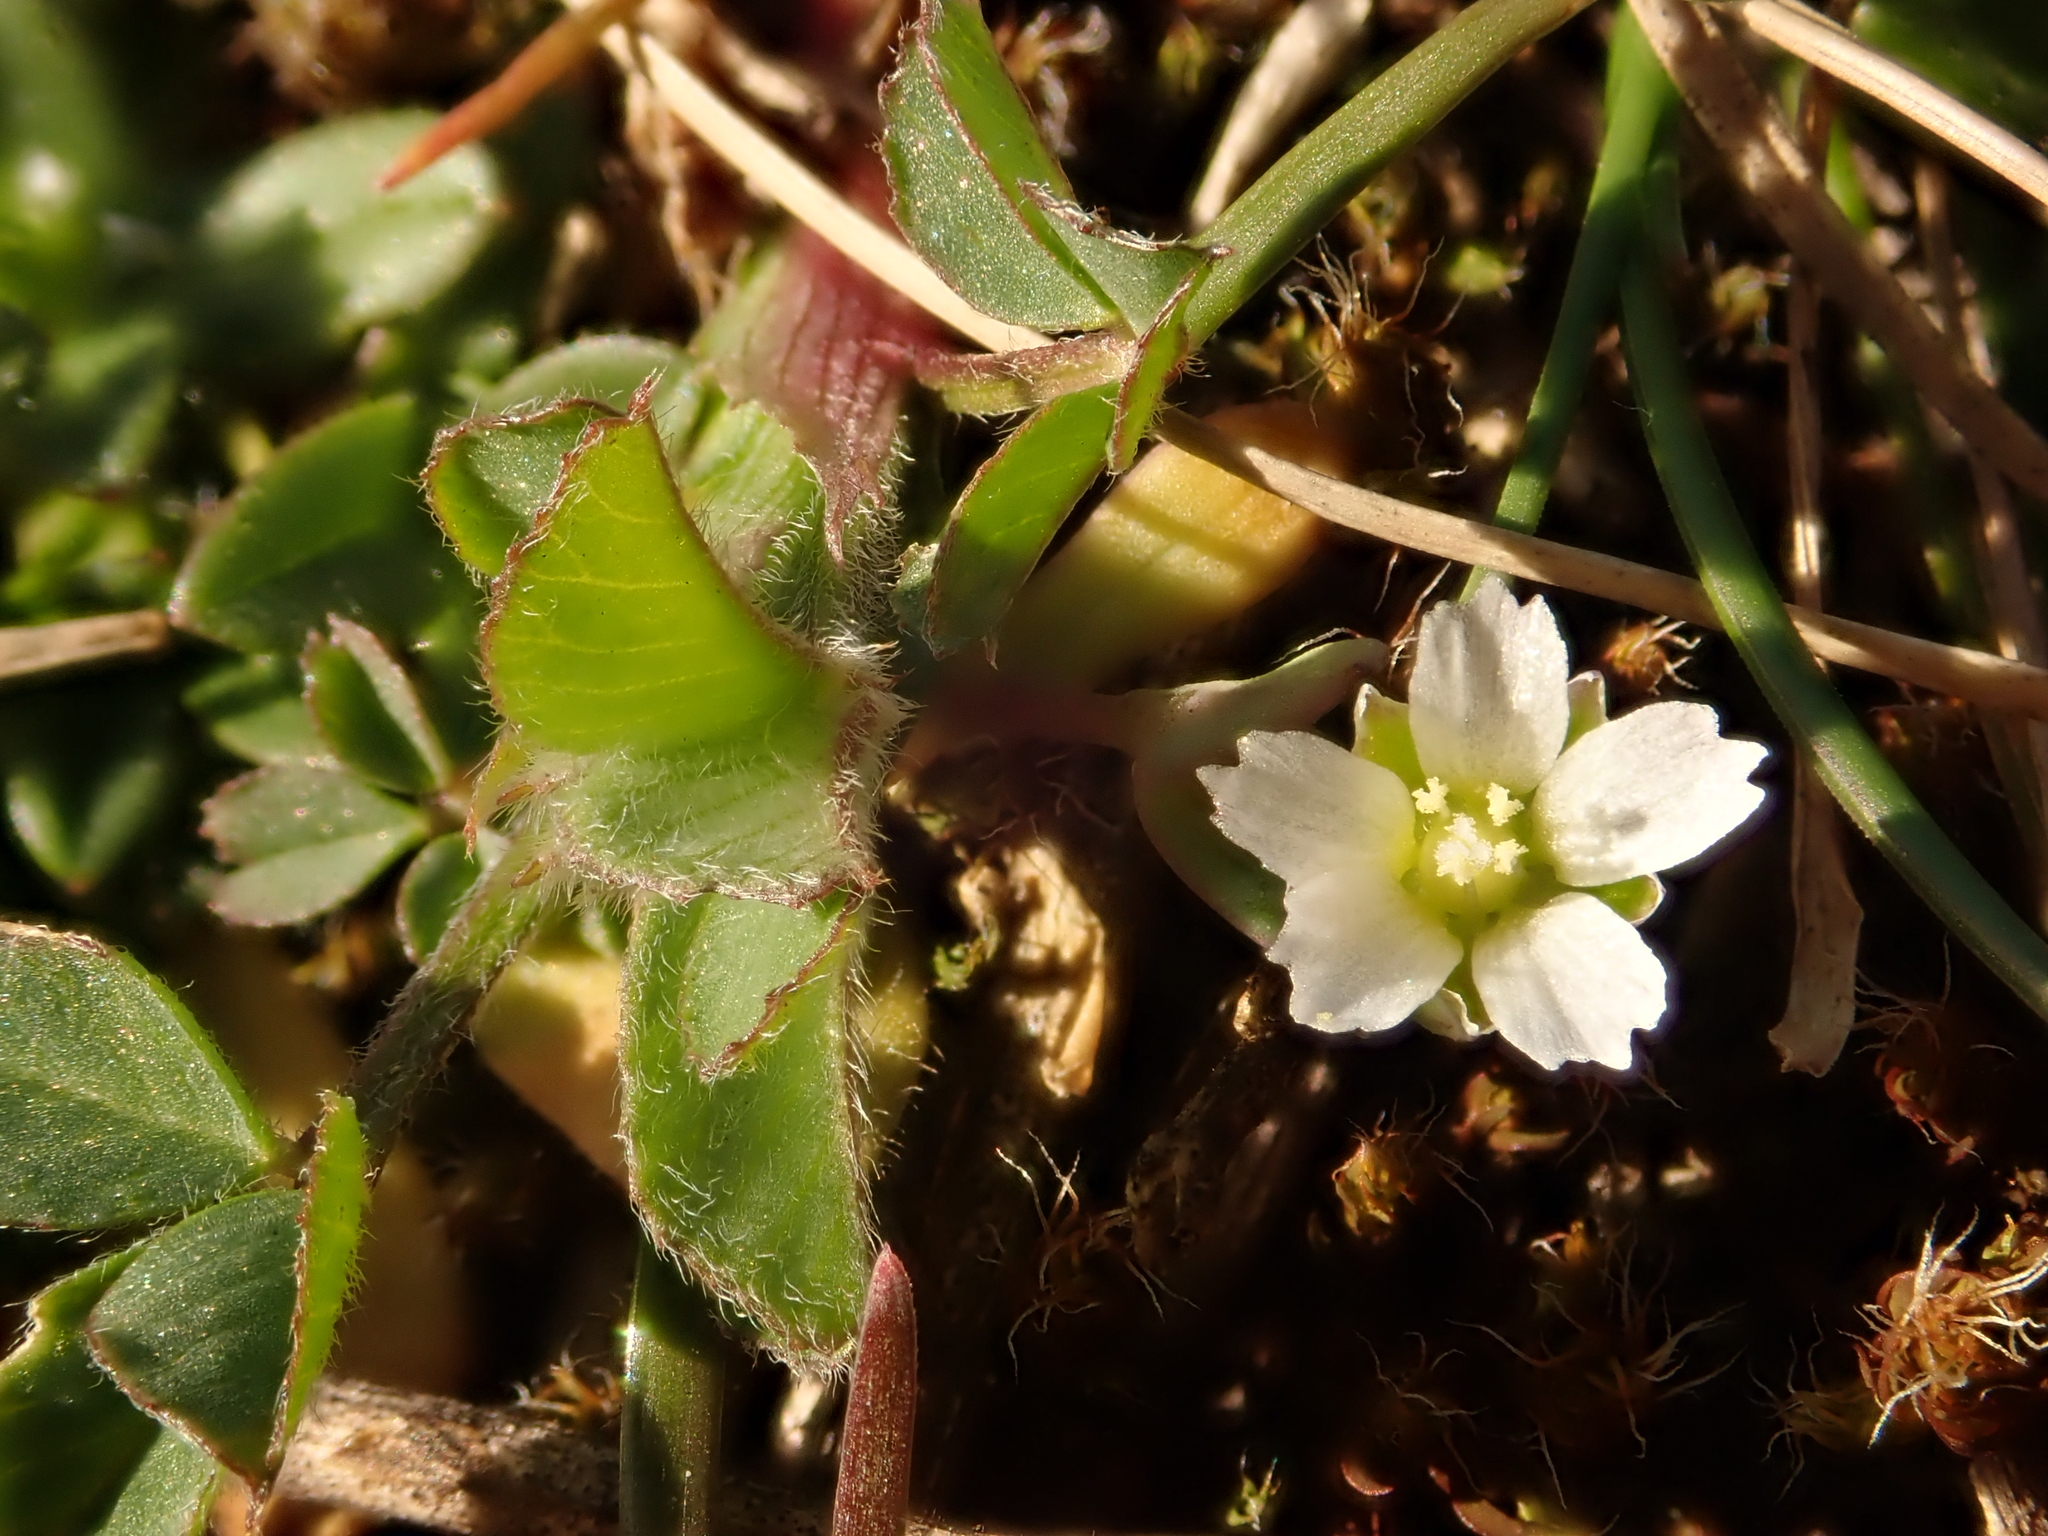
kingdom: Plantae
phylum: Tracheophyta
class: Magnoliopsida
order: Caryophyllales
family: Caryophyllaceae
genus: Holosteum
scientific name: Holosteum umbellatum
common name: Jagged chickweed
